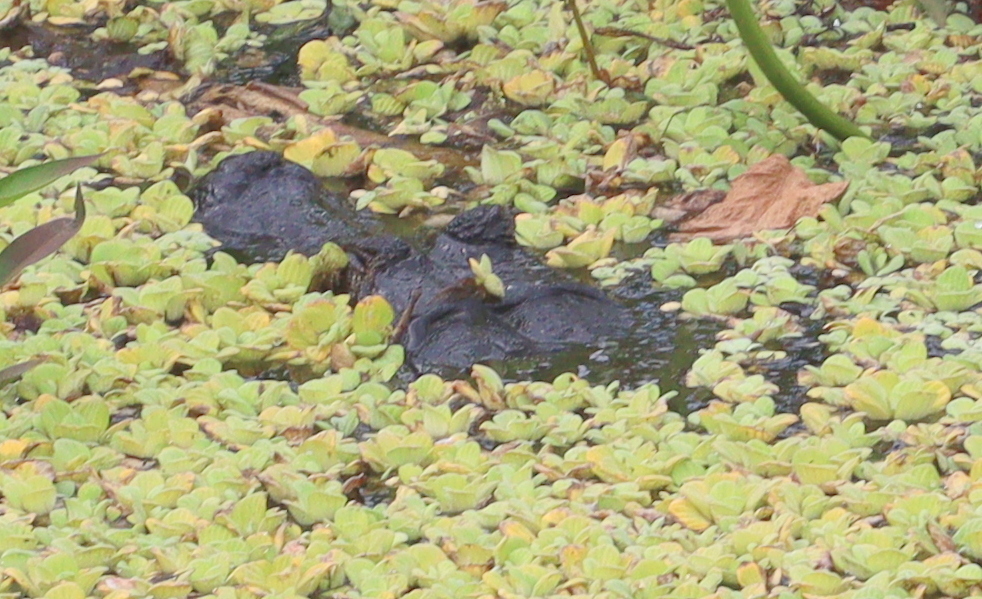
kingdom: Animalia
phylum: Chordata
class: Crocodylia
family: Alligatoridae
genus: Caiman
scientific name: Caiman yacare
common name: Yacare caiman
